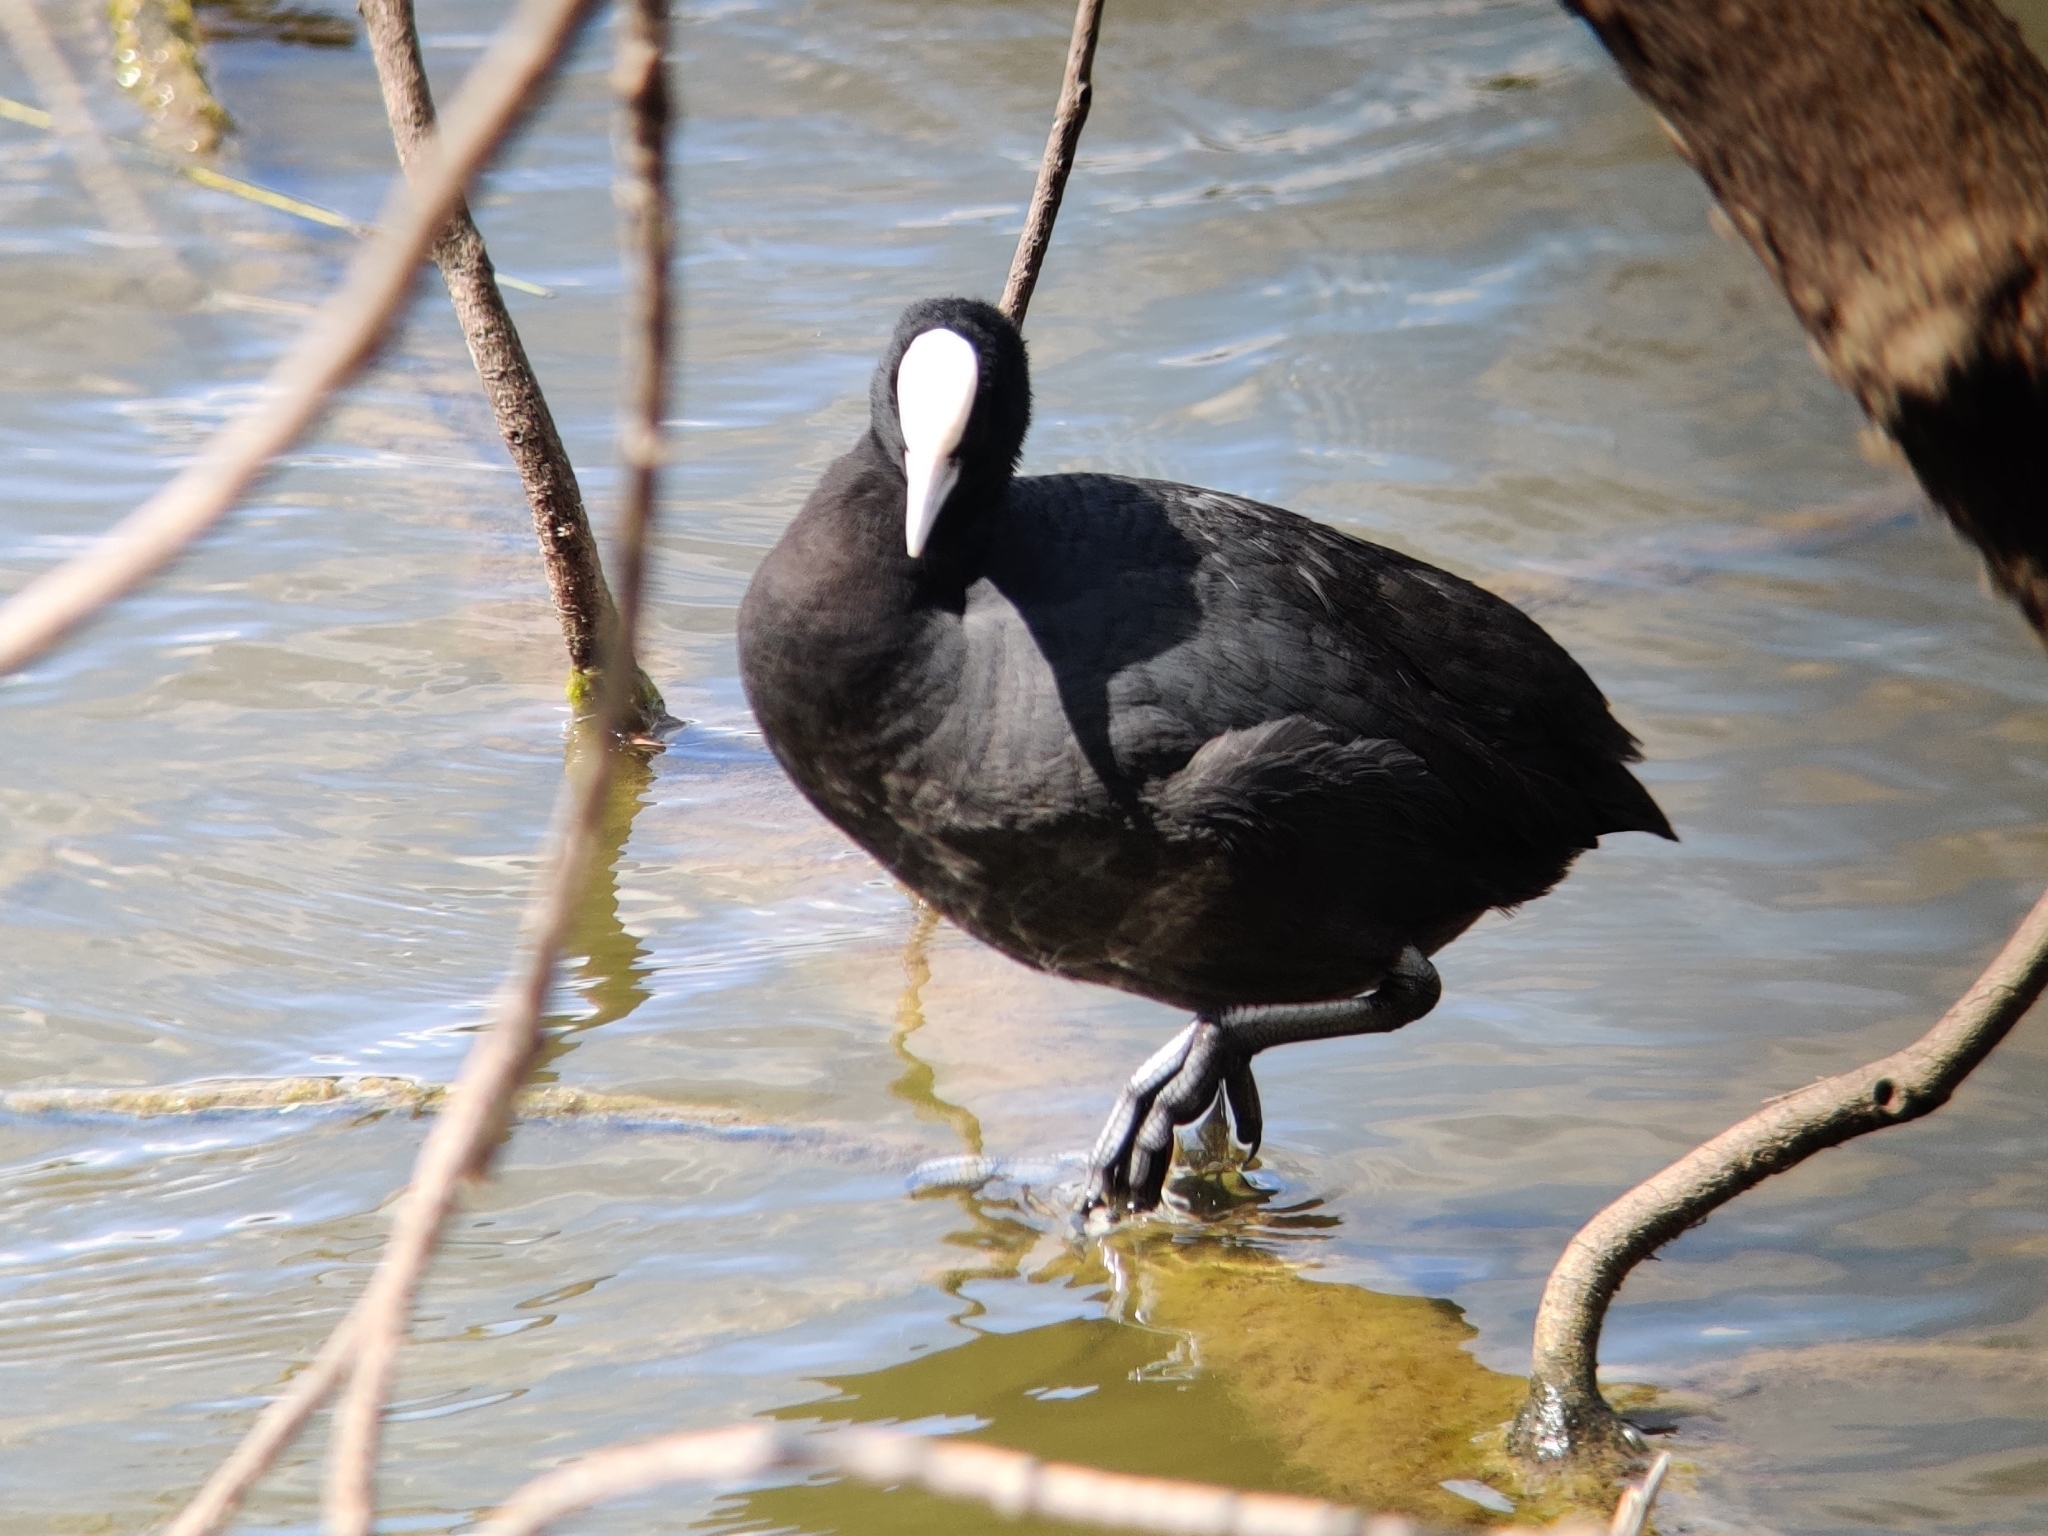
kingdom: Animalia
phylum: Chordata
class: Aves
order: Gruiformes
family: Rallidae
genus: Fulica
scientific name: Fulica atra
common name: Eurasian coot
